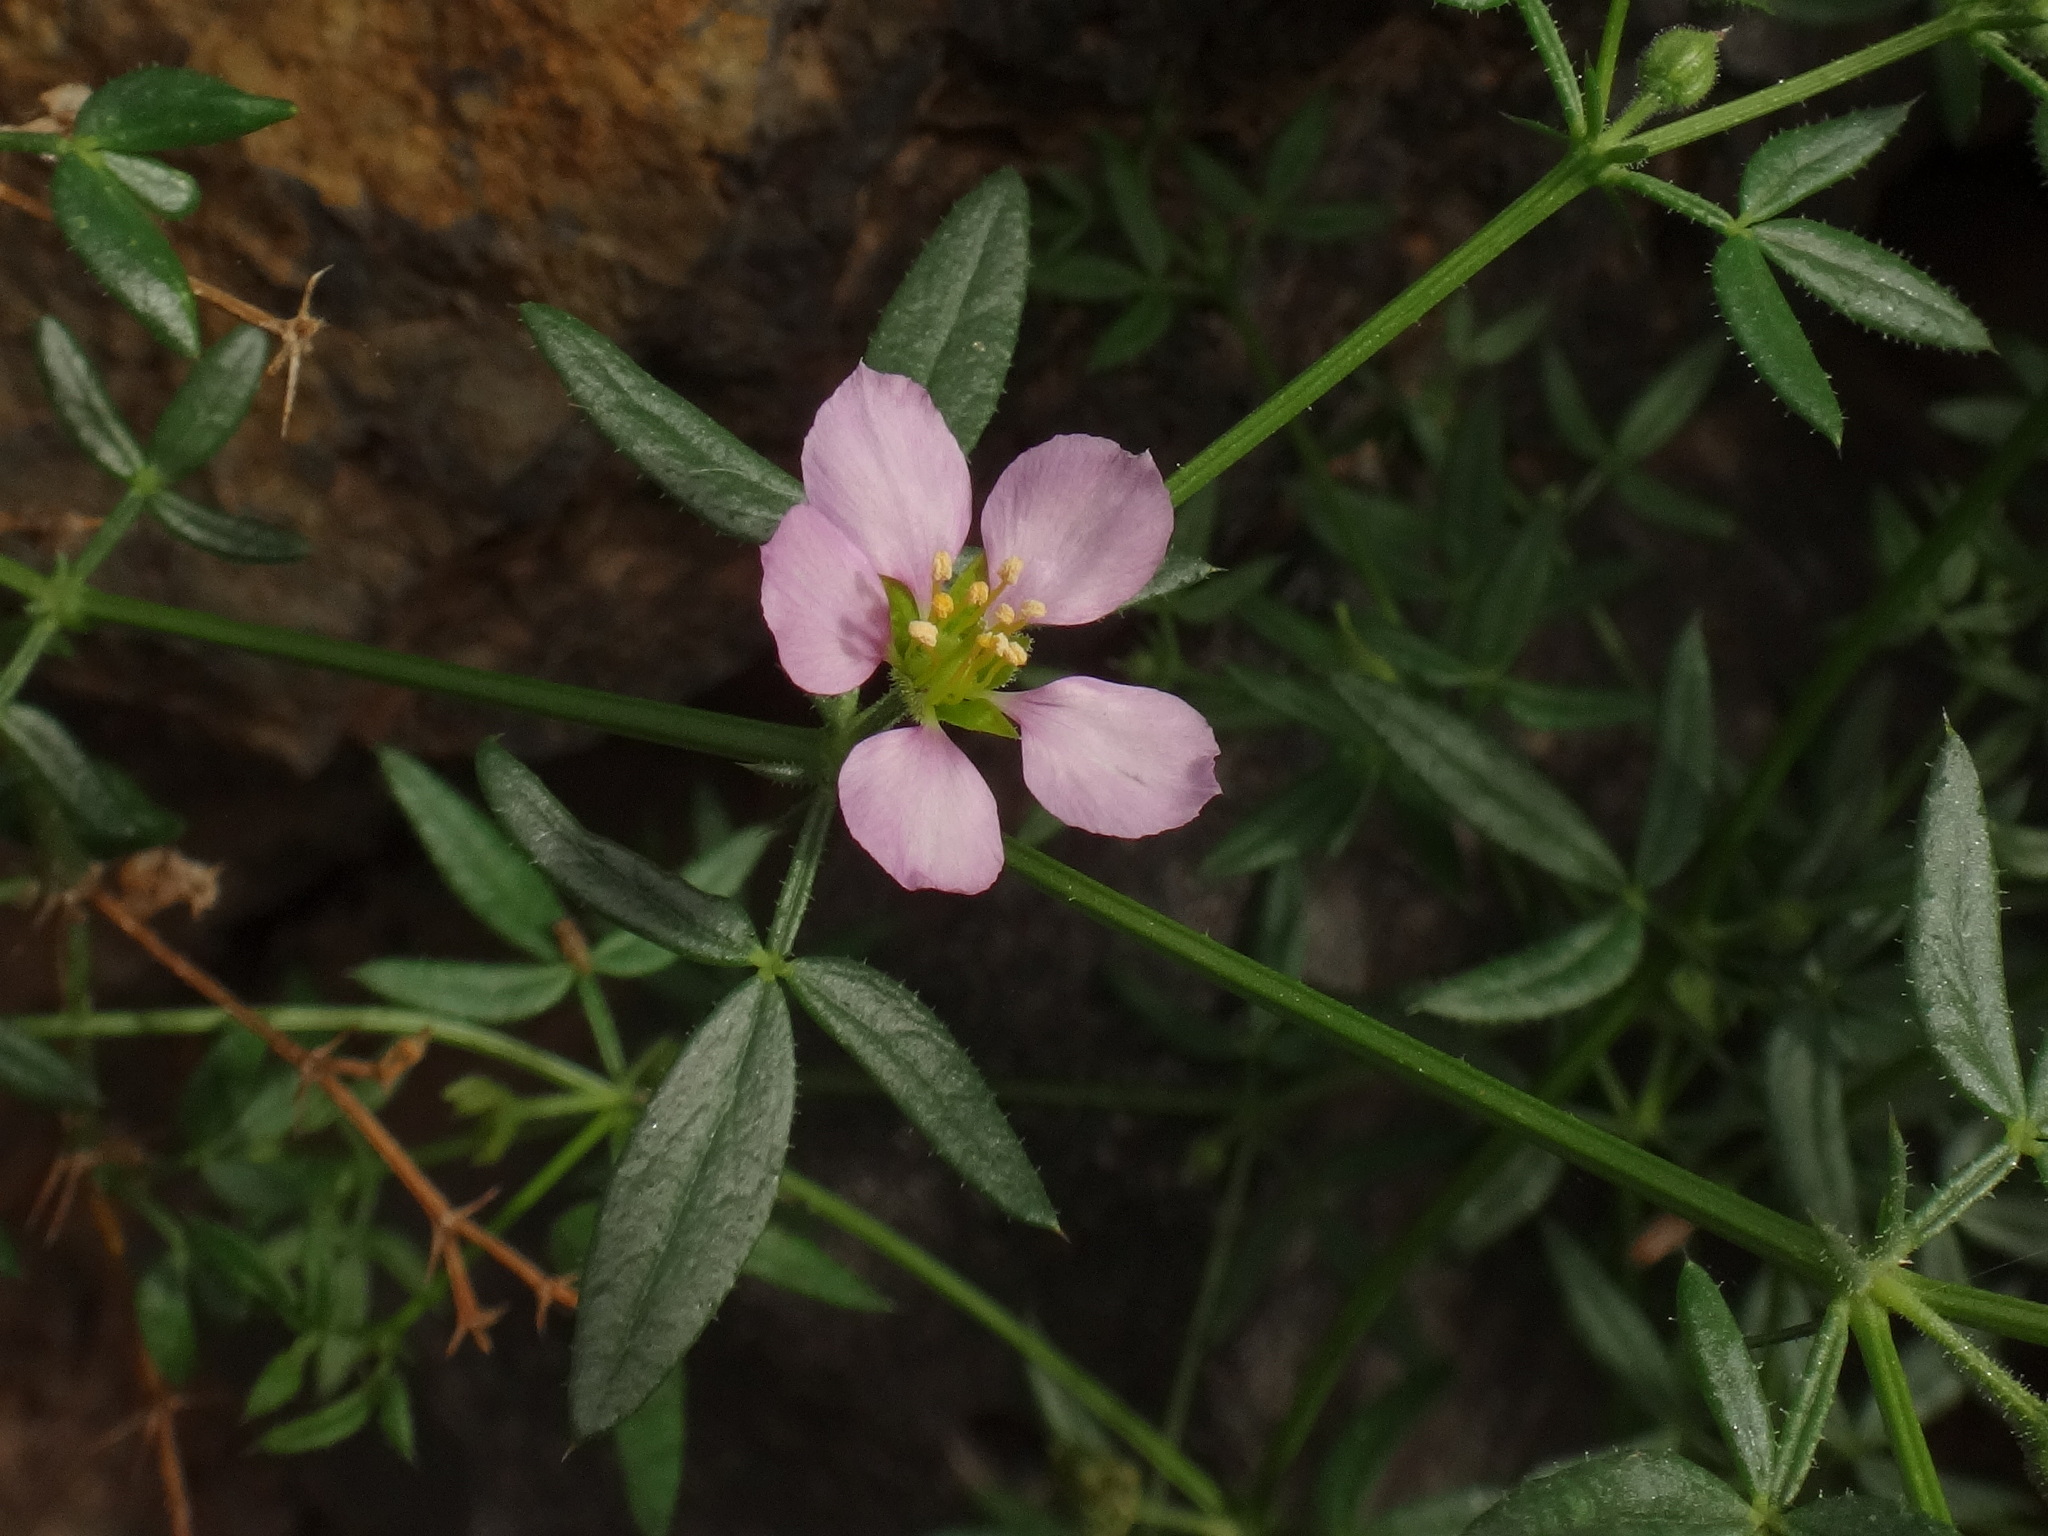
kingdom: Plantae
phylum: Tracheophyta
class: Magnoliopsida
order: Zygophyllales
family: Zygophyllaceae
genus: Fagonia
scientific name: Fagonia cretica
